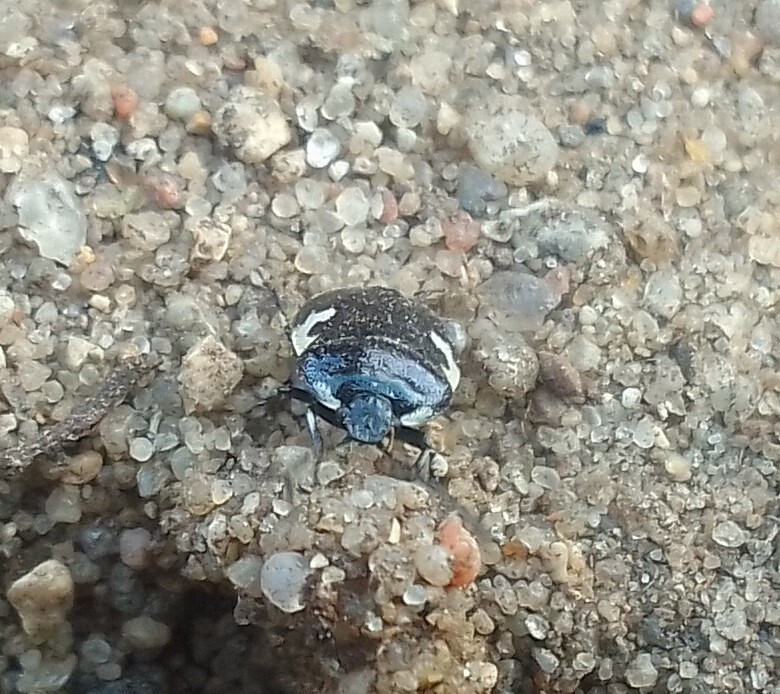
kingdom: Animalia
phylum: Arthropoda
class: Insecta
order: Hemiptera
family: Cydnidae
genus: Tritomegas
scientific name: Tritomegas bicolor
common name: Pied shieldbug
